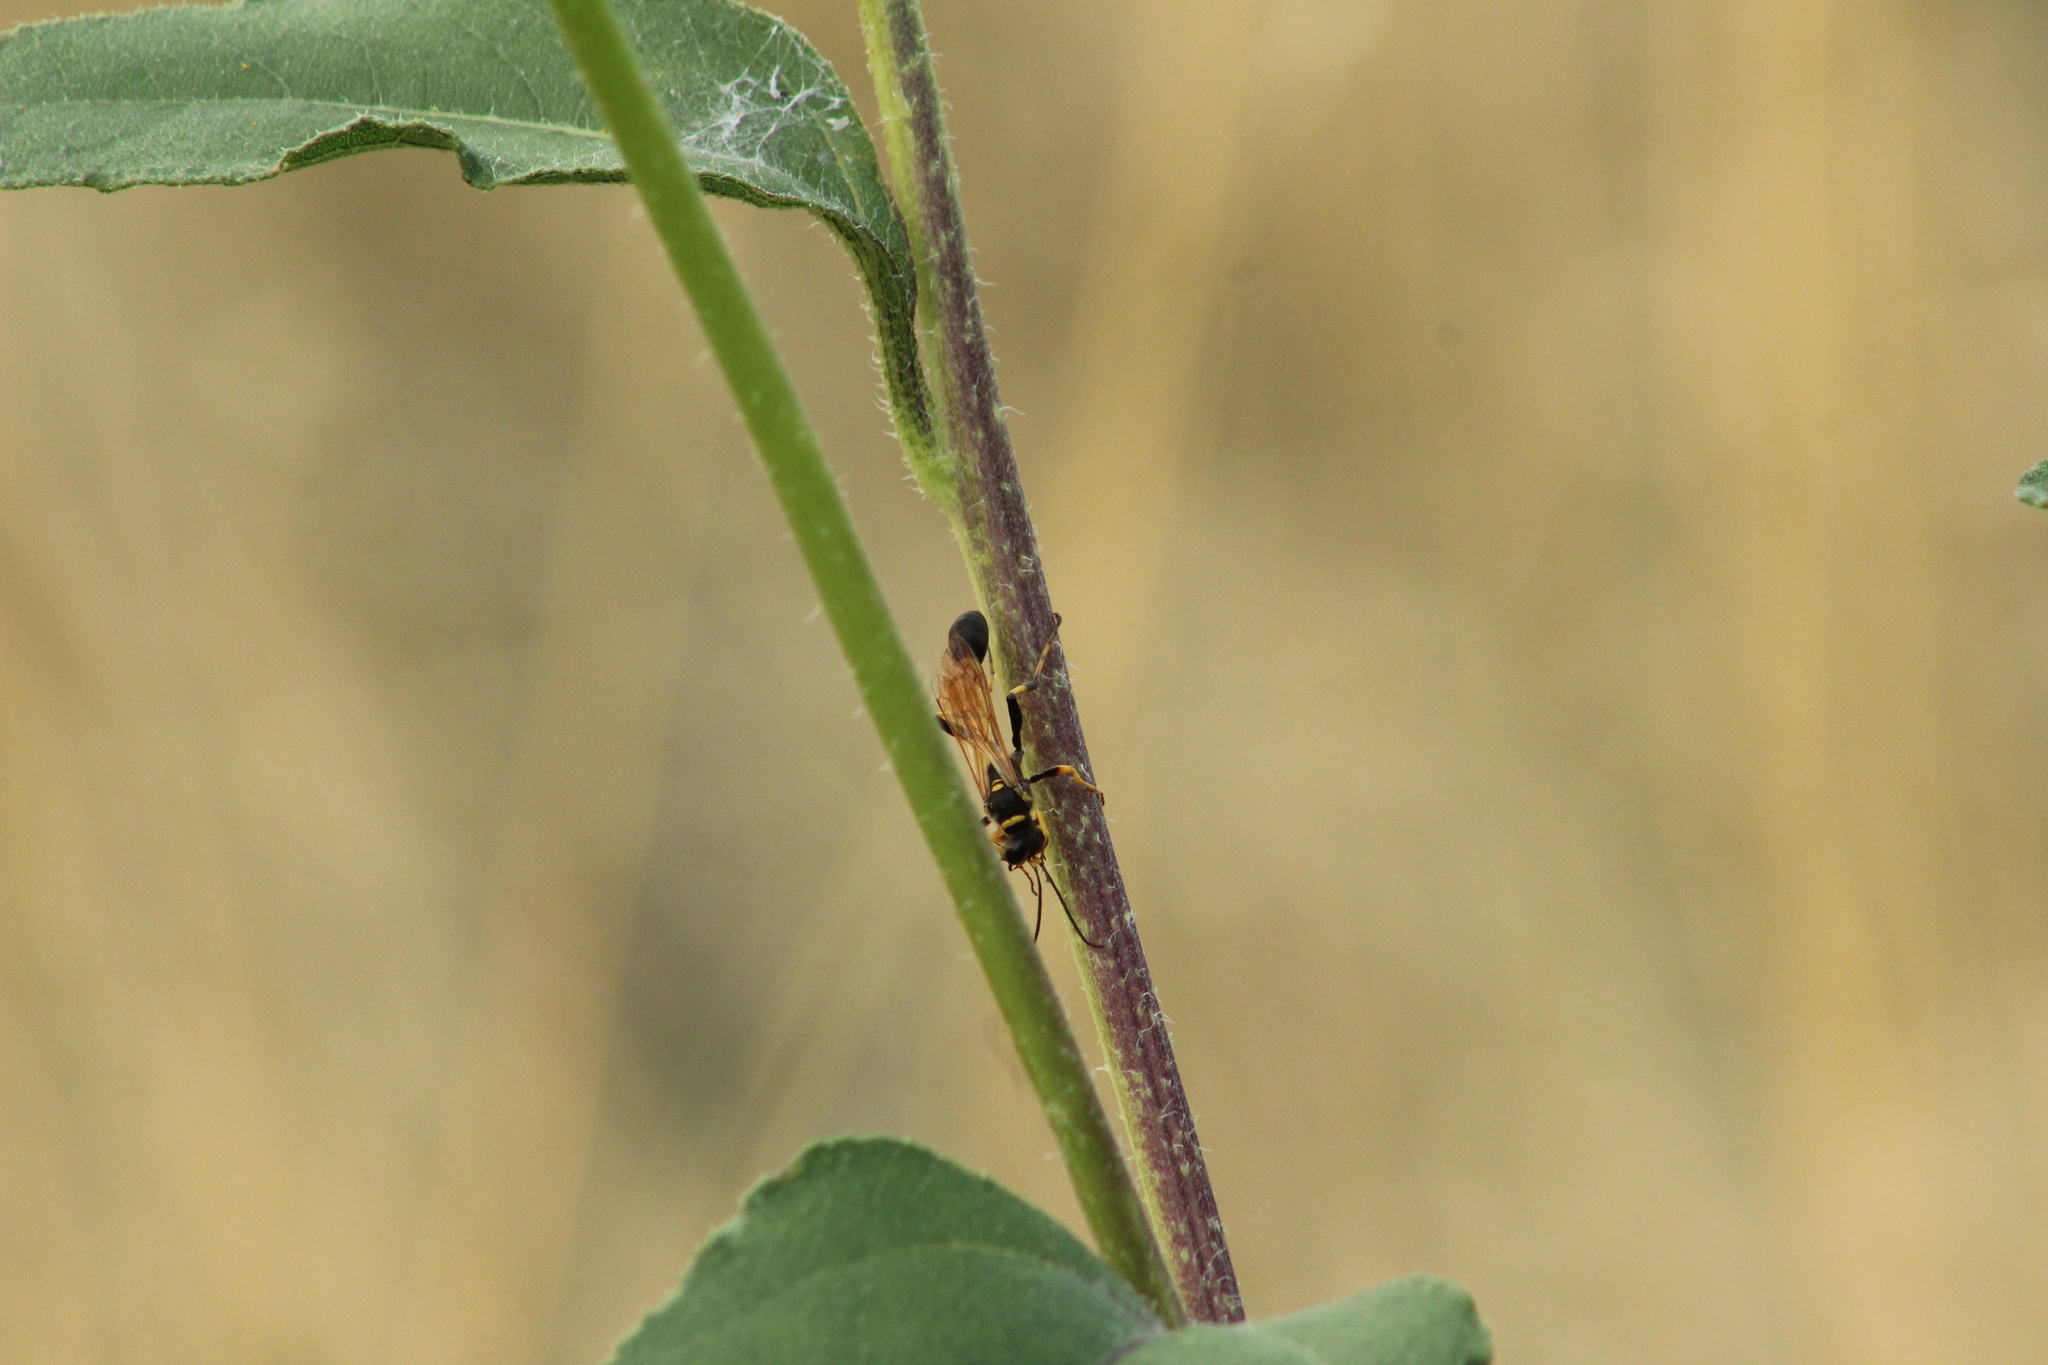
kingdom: Animalia
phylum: Arthropoda
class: Insecta
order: Hymenoptera
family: Sphecidae
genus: Sceliphron
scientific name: Sceliphron caementarium
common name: Mud dauber
